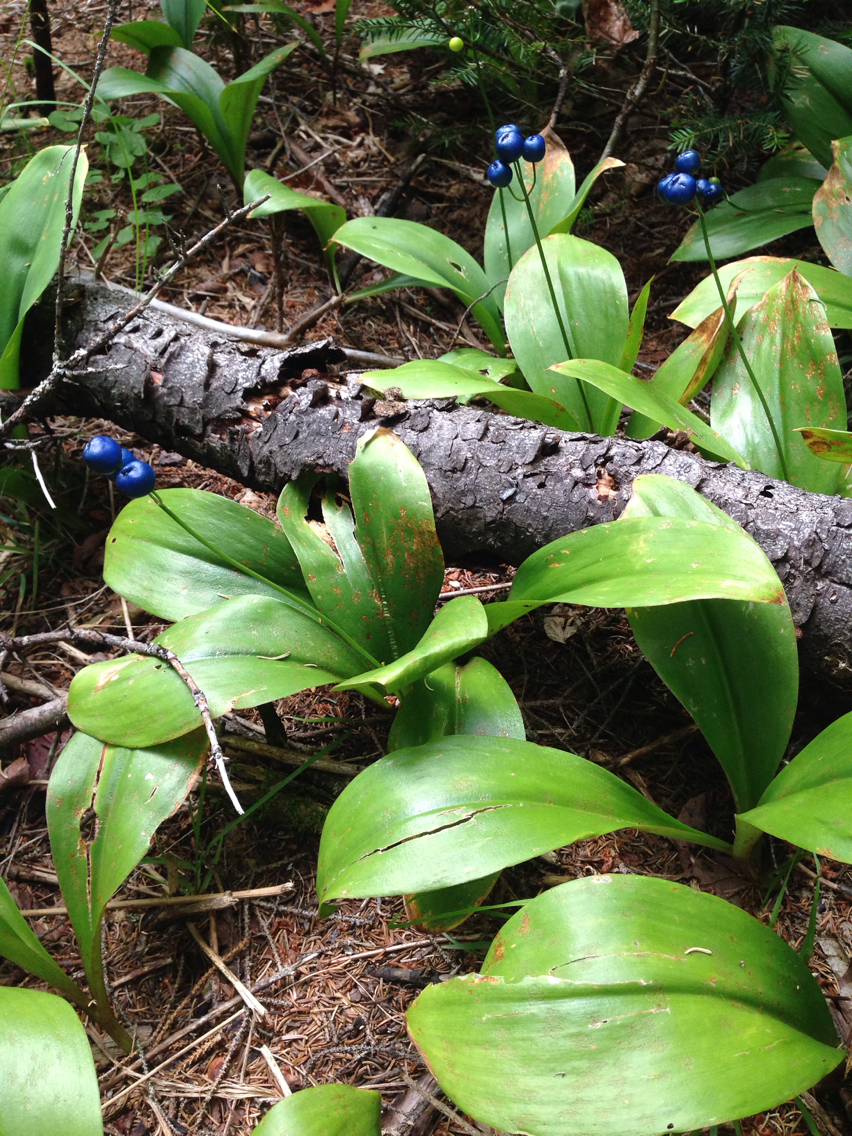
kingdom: Plantae
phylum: Tracheophyta
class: Liliopsida
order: Liliales
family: Liliaceae
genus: Clintonia
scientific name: Clintonia borealis
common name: Yellow clintonia
